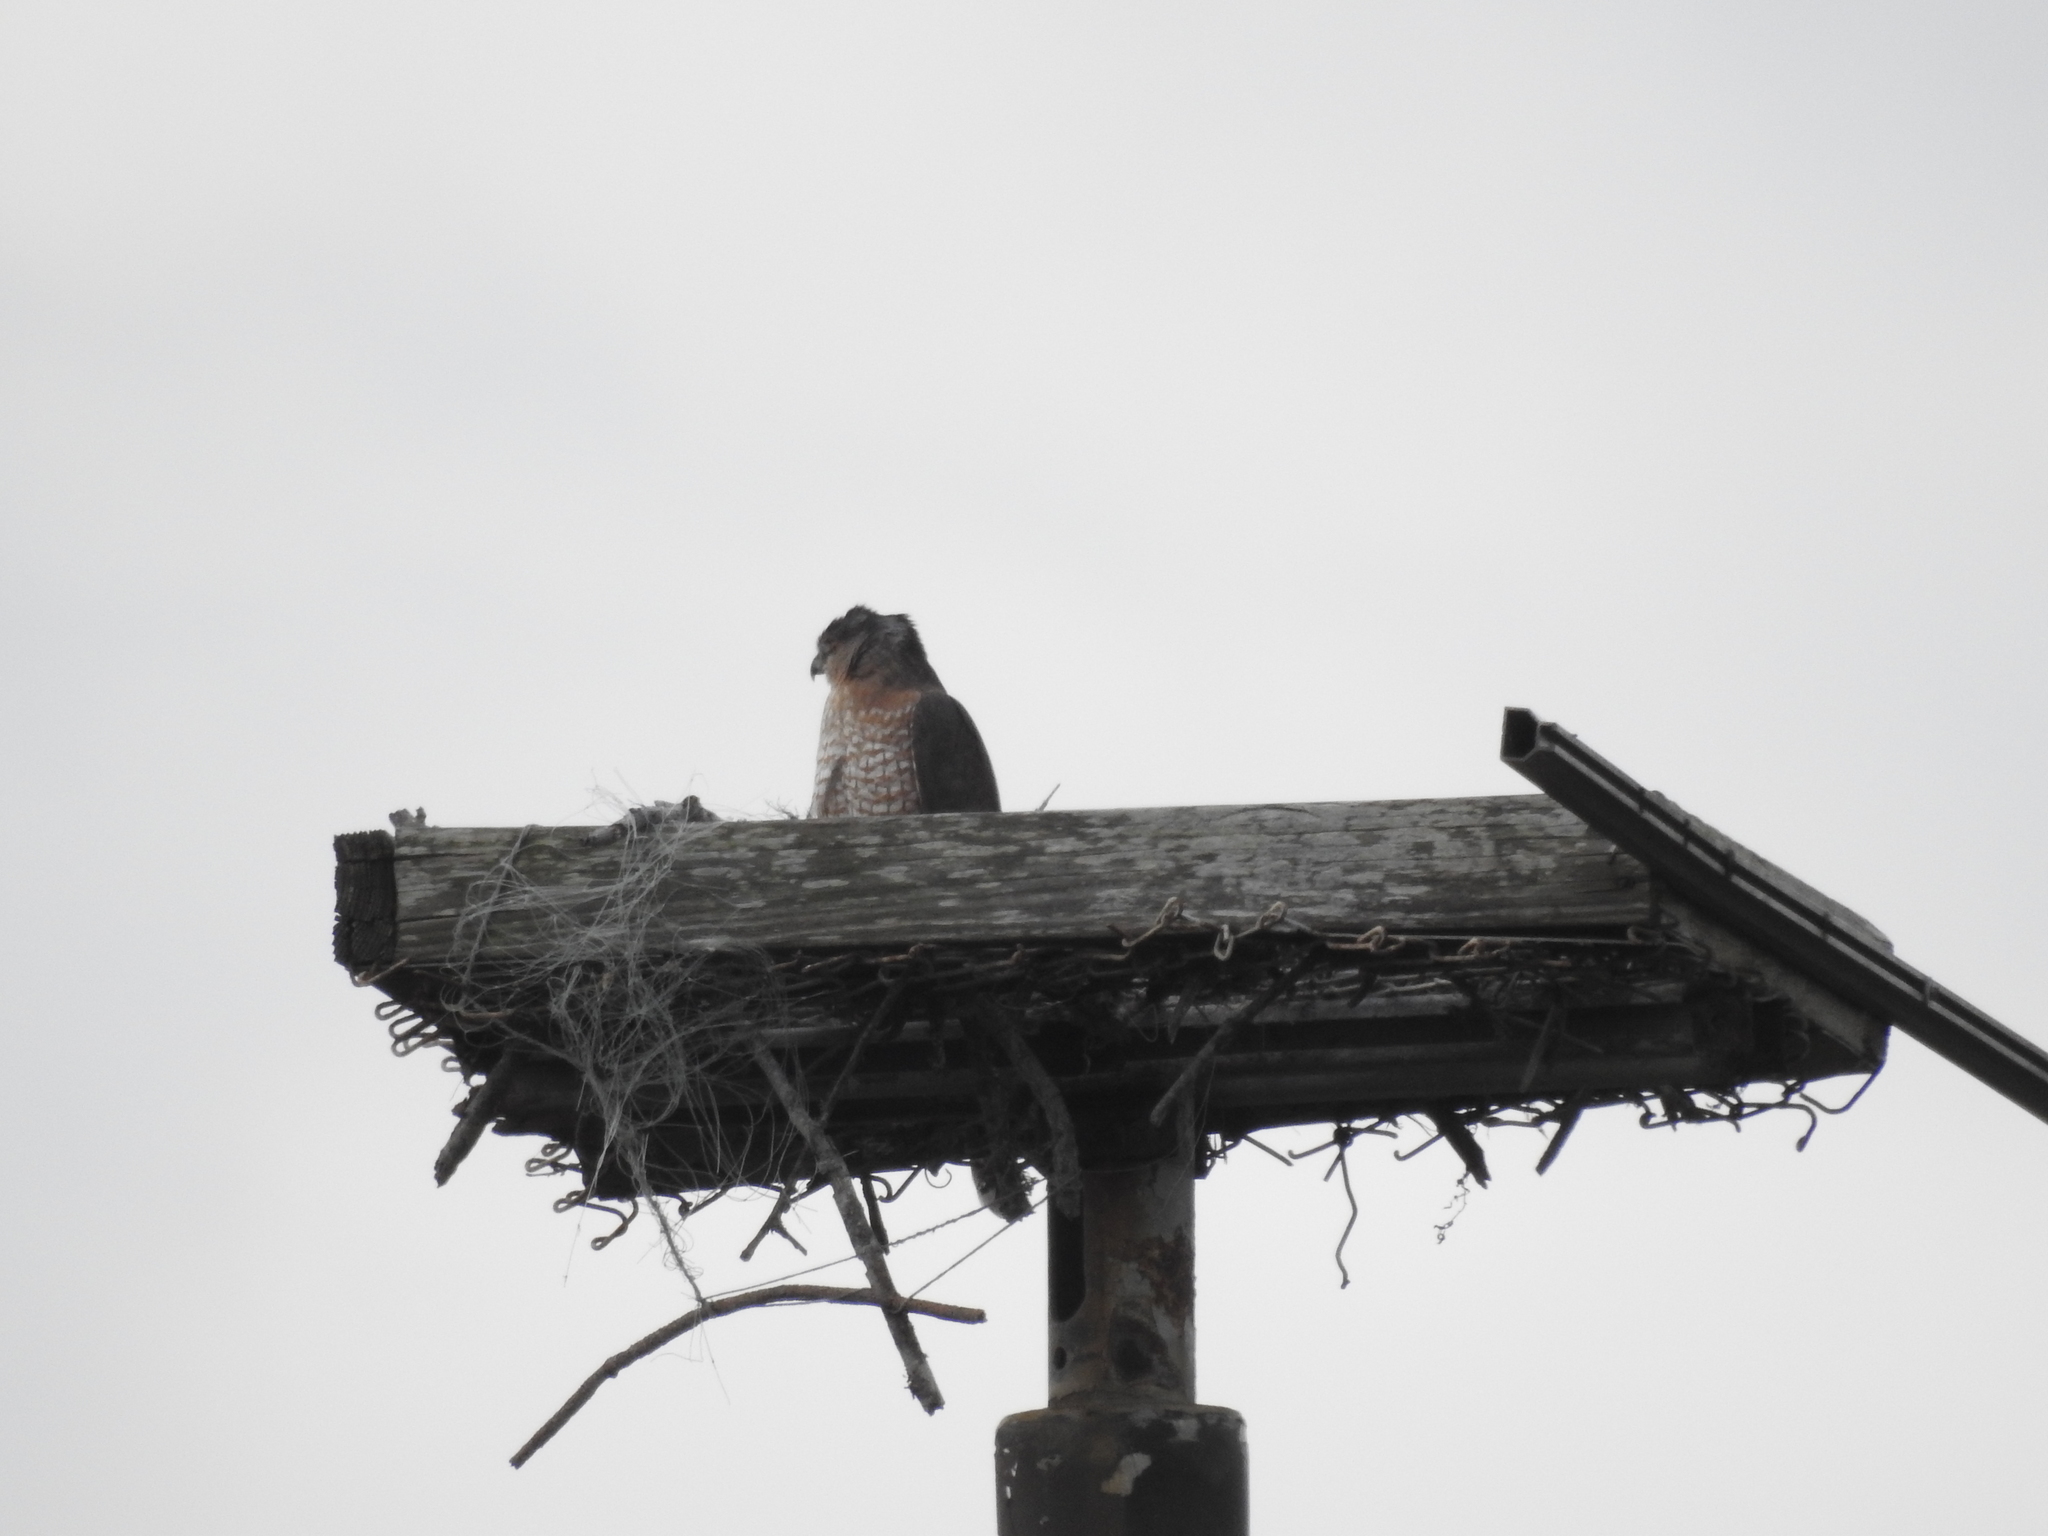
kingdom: Animalia
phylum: Chordata
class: Aves
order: Accipitriformes
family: Accipitridae
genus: Accipiter
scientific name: Accipiter cooperii
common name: Cooper's hawk
